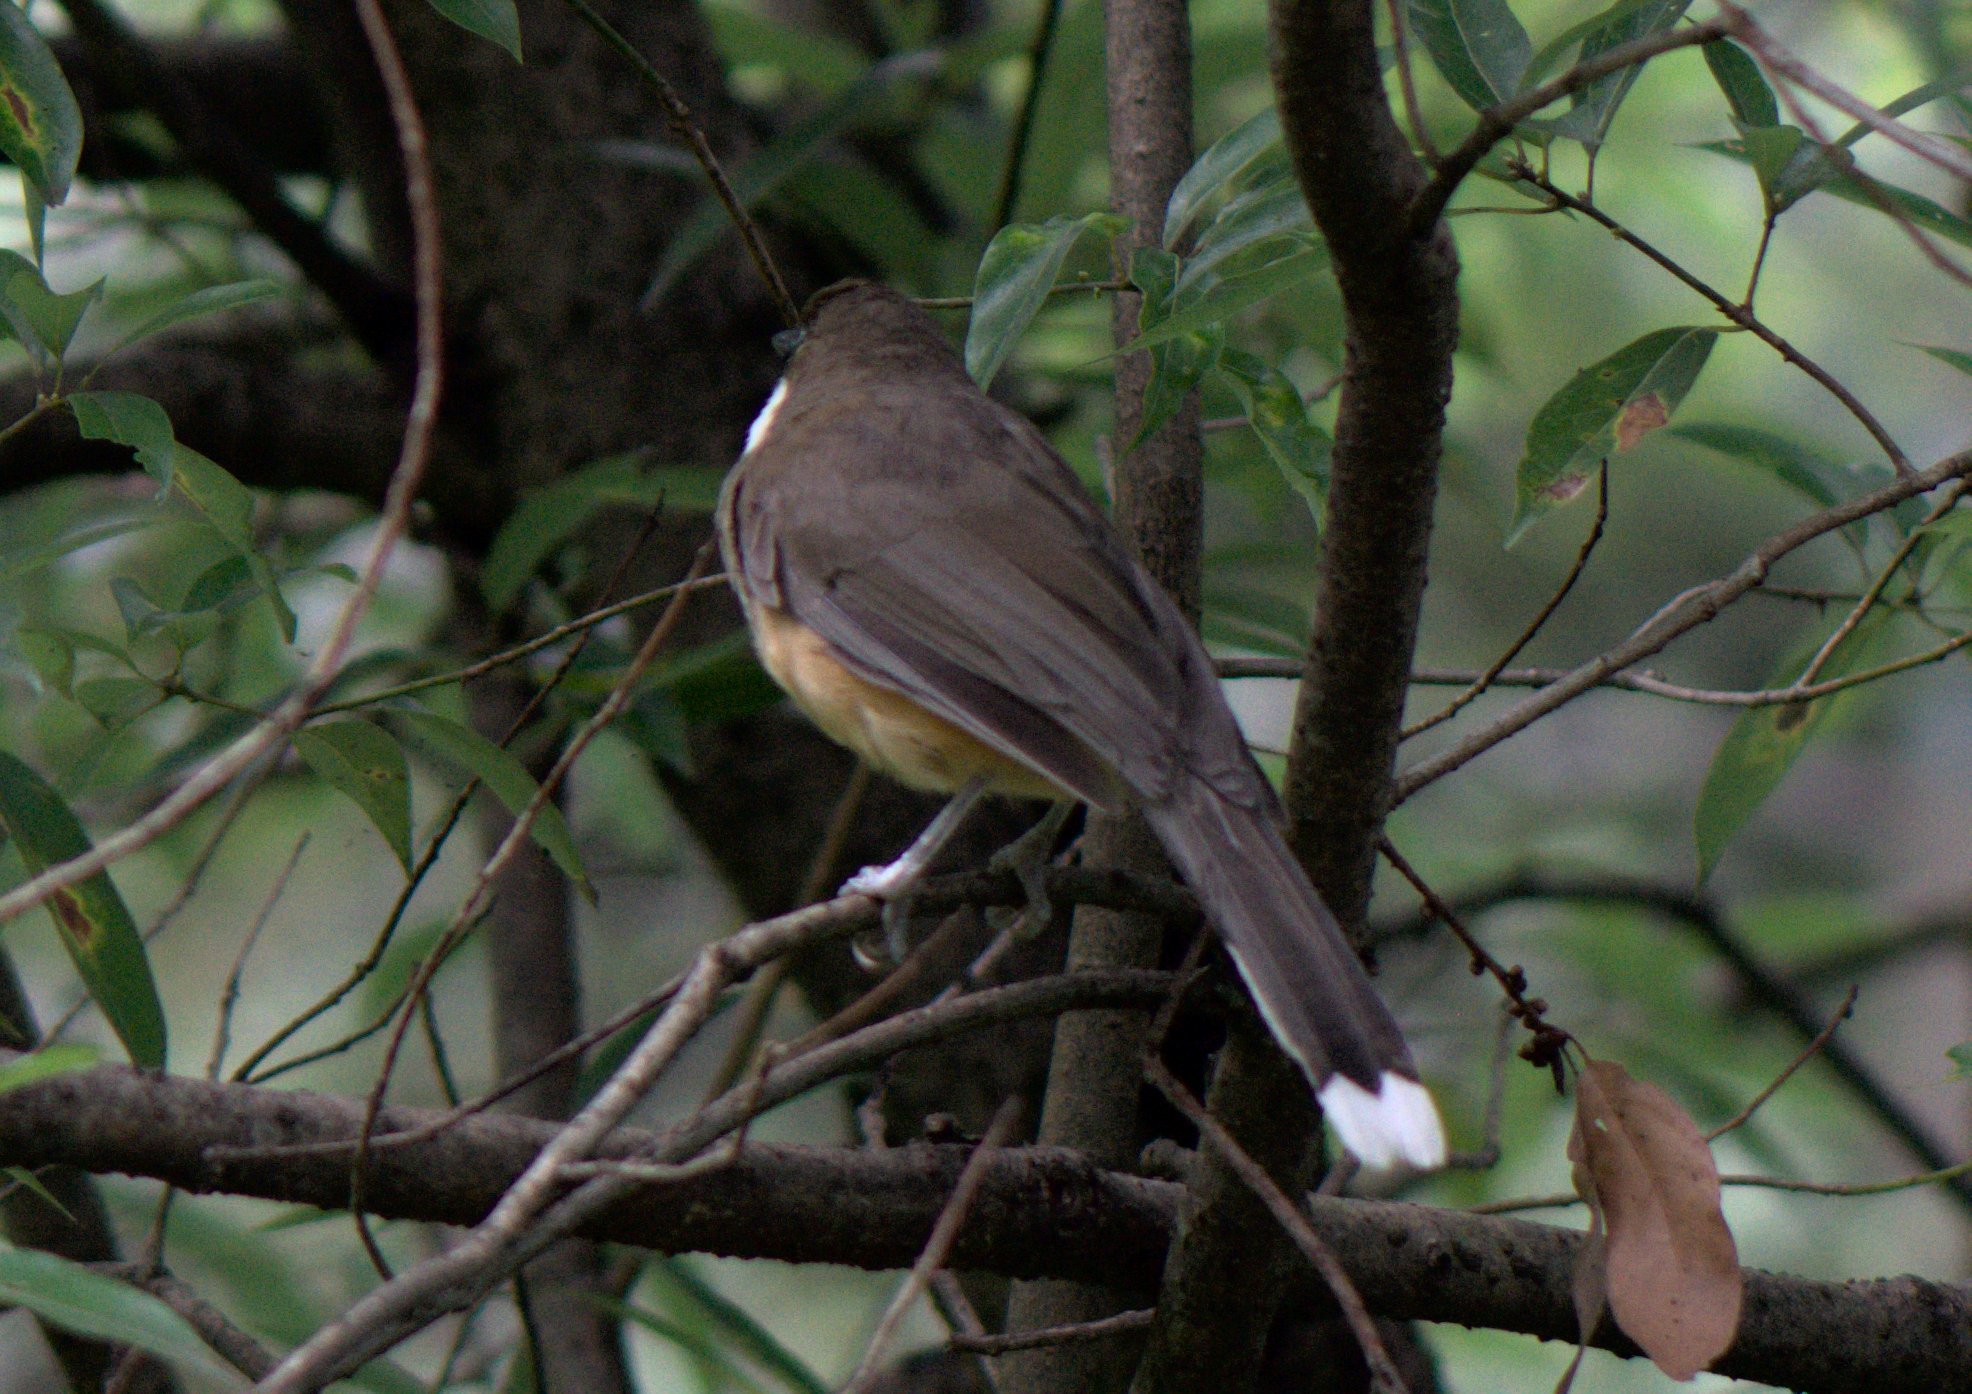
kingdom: Animalia
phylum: Chordata
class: Aves
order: Passeriformes
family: Leiothrichidae
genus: Garrulax
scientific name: Garrulax albogularis
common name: White-throated laughingthrush
